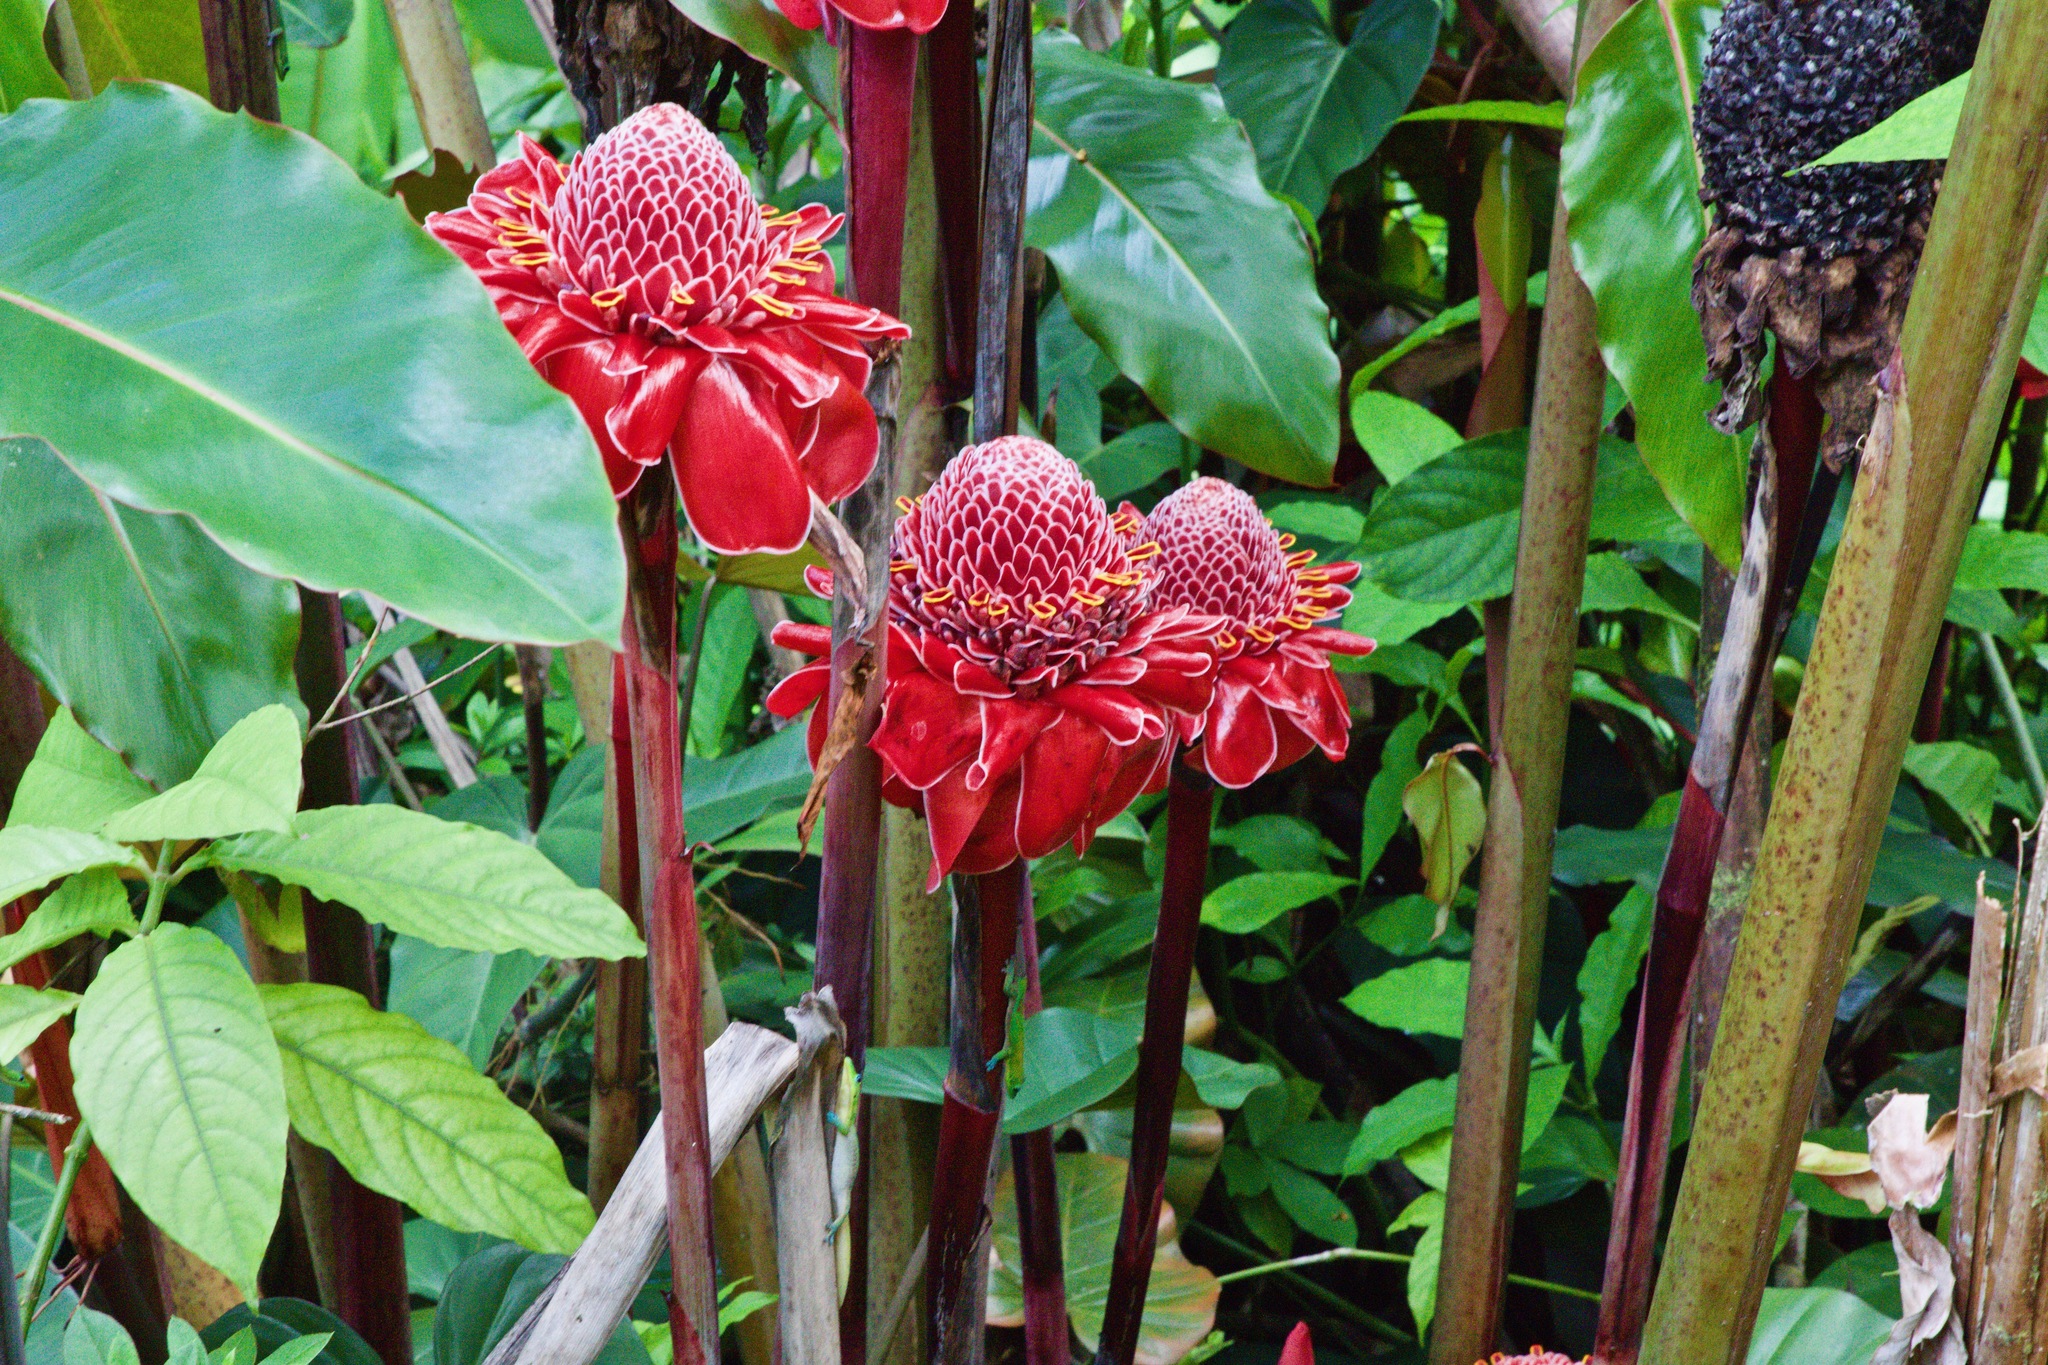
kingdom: Plantae
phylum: Tracheophyta
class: Liliopsida
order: Zingiberales
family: Zingiberaceae
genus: Etlingera
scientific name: Etlingera elatior
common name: Philippine waxflower
